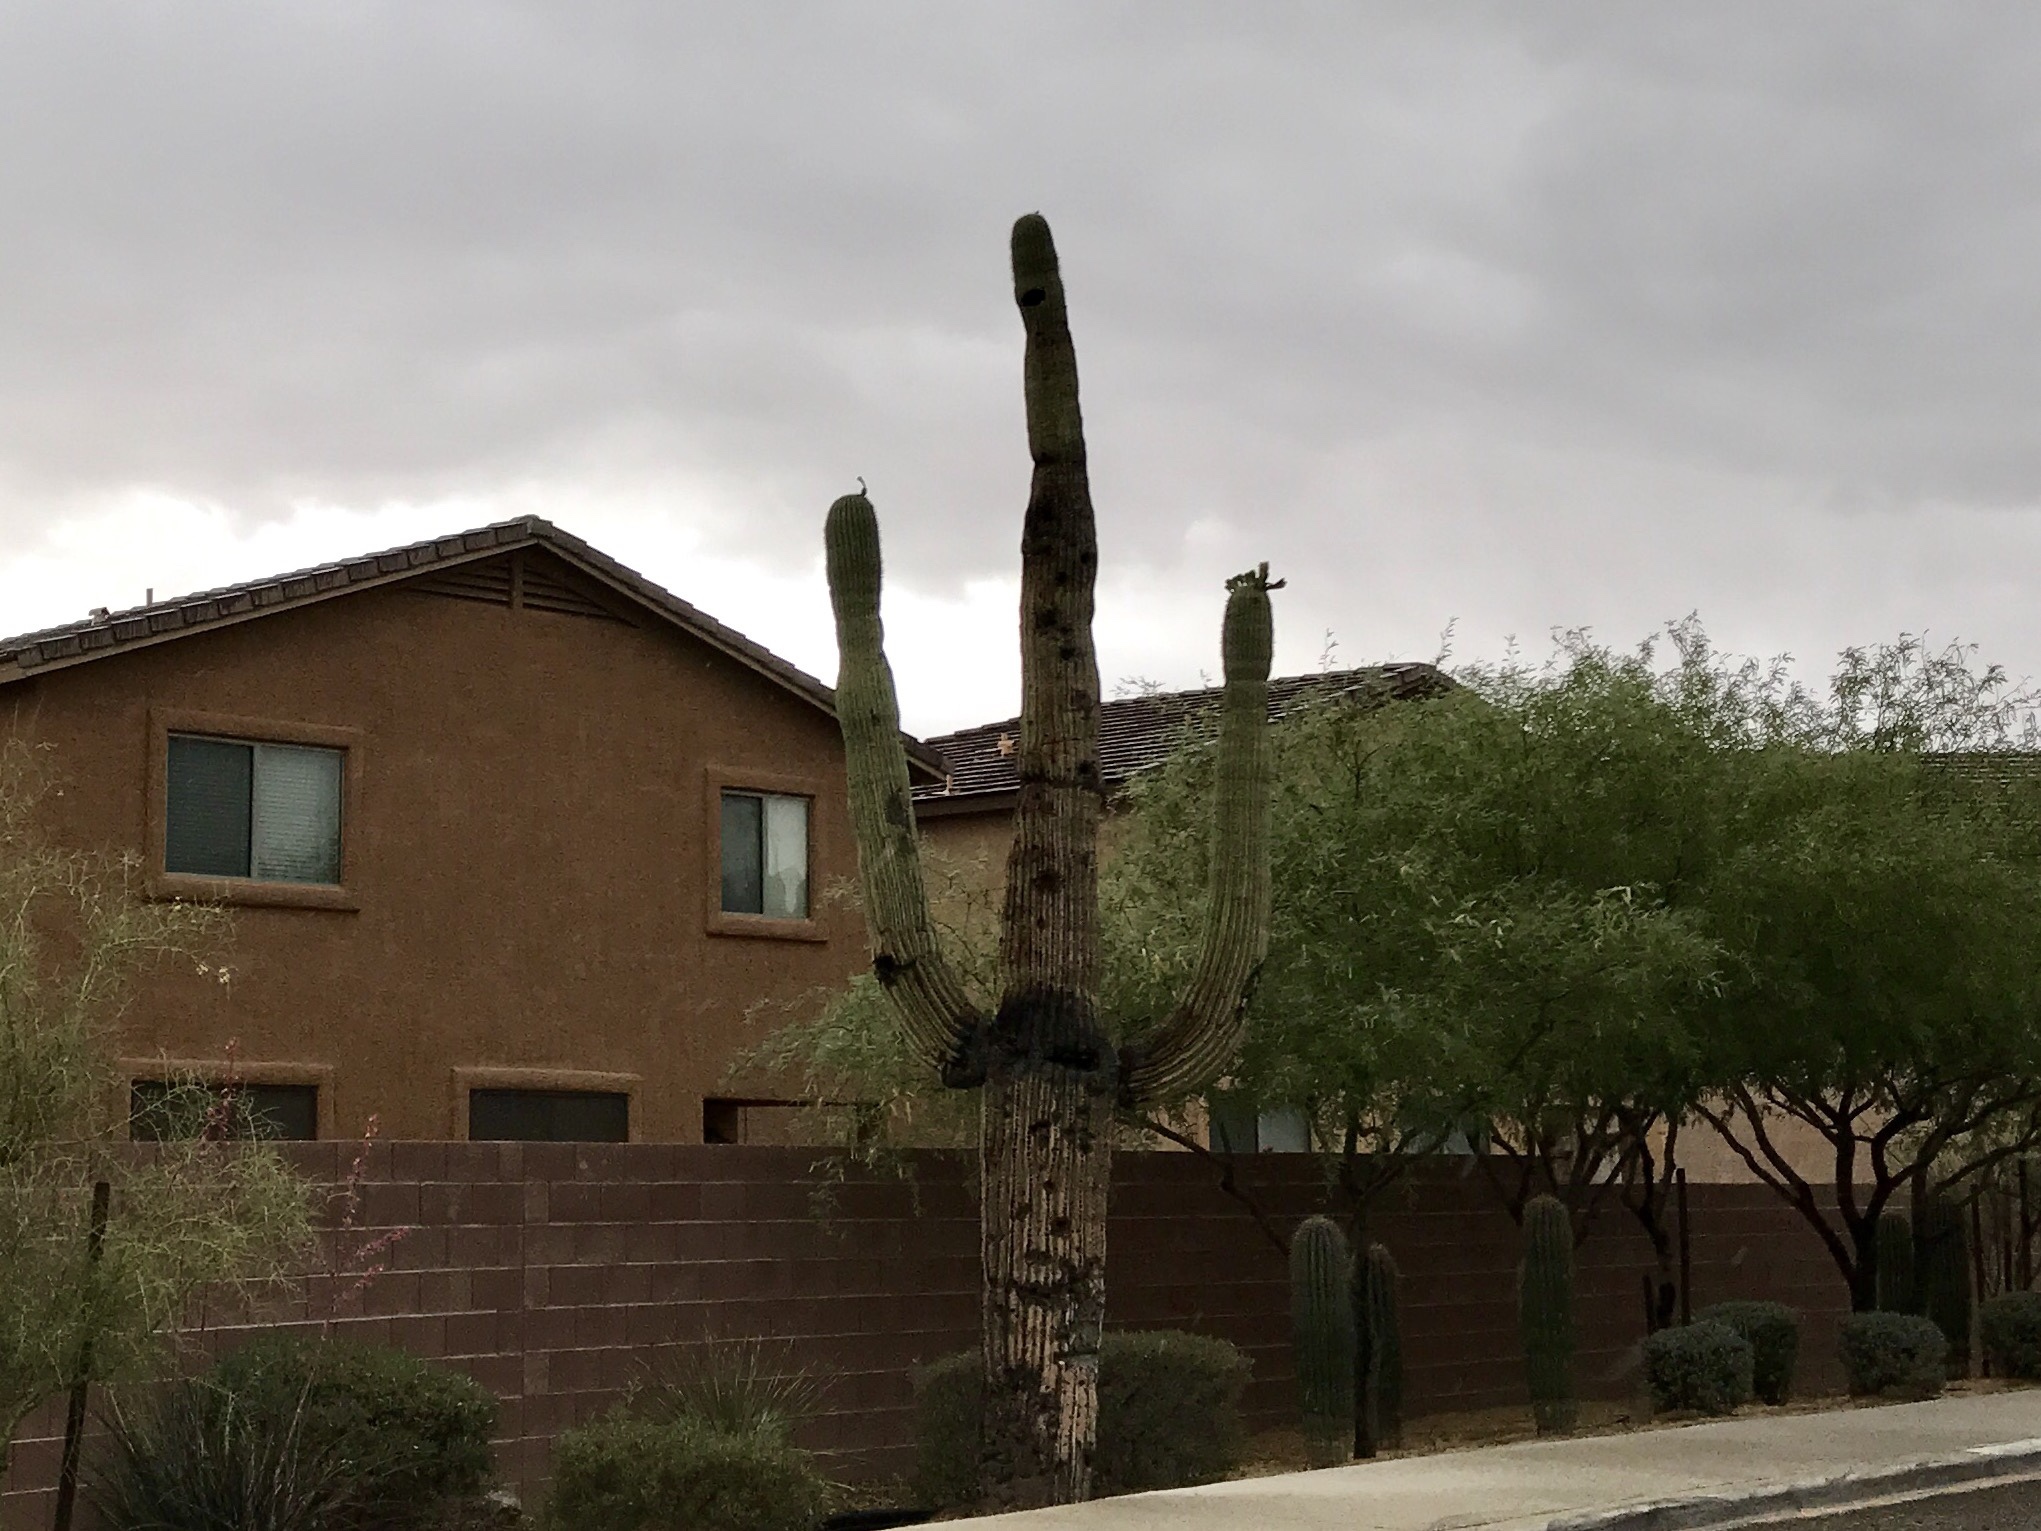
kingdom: Plantae
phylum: Tracheophyta
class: Magnoliopsida
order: Caryophyllales
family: Cactaceae
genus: Carnegiea
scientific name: Carnegiea gigantea
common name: Saguaro
